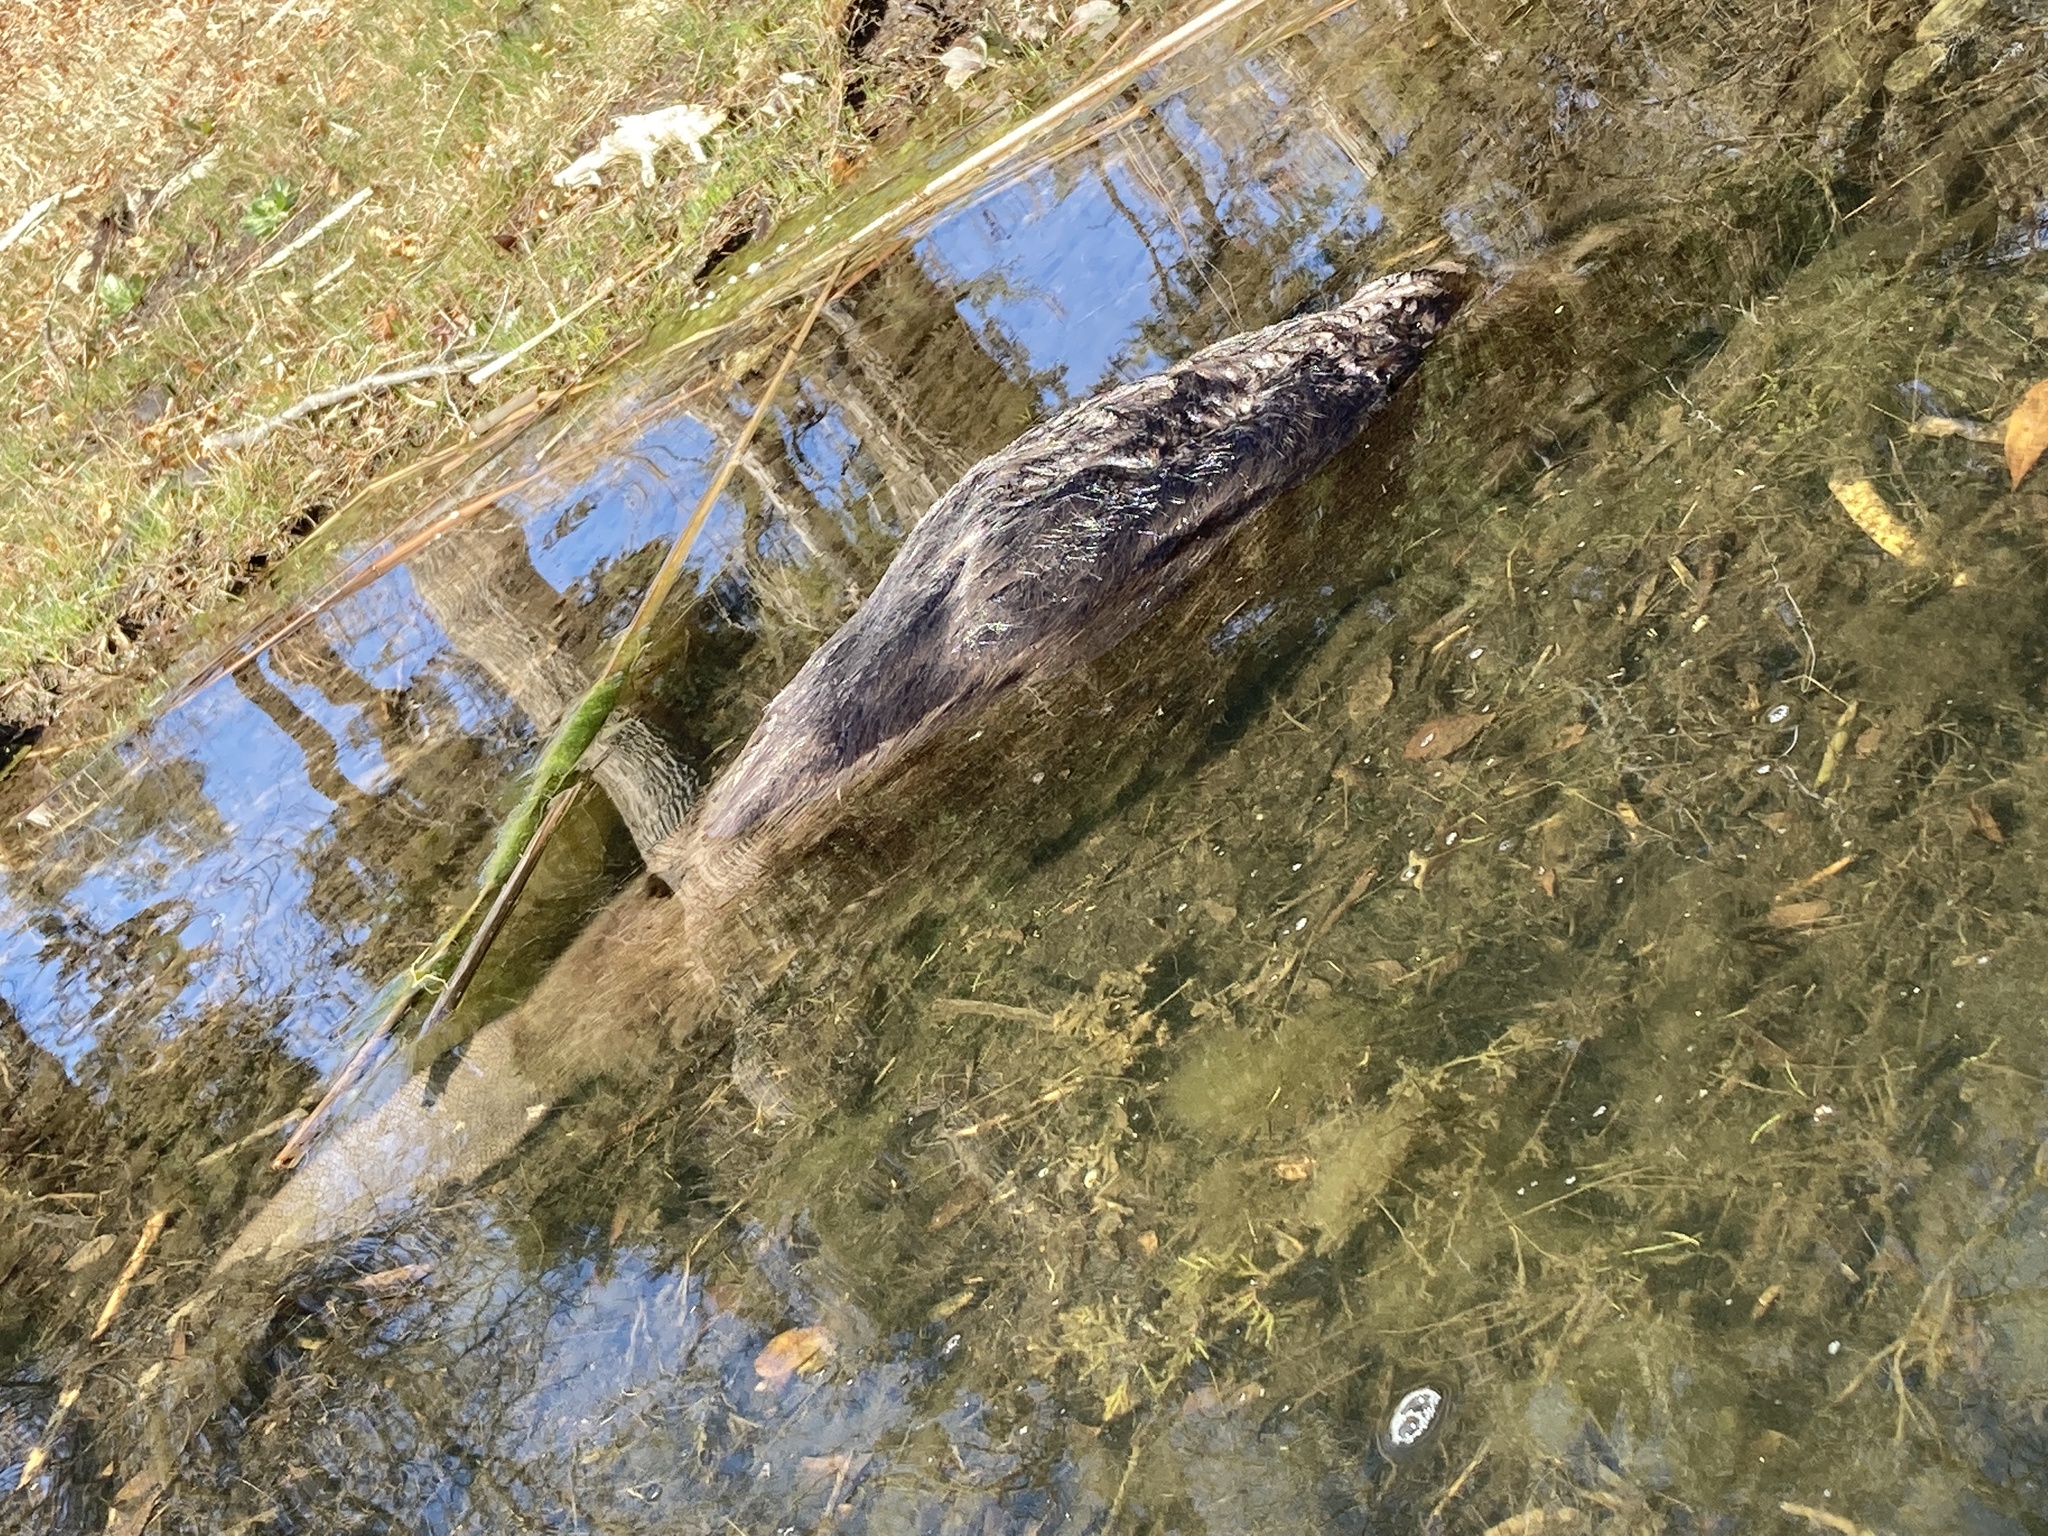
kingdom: Animalia
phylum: Chordata
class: Mammalia
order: Rodentia
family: Castoridae
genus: Castor
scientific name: Castor canadensis
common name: American beaver
